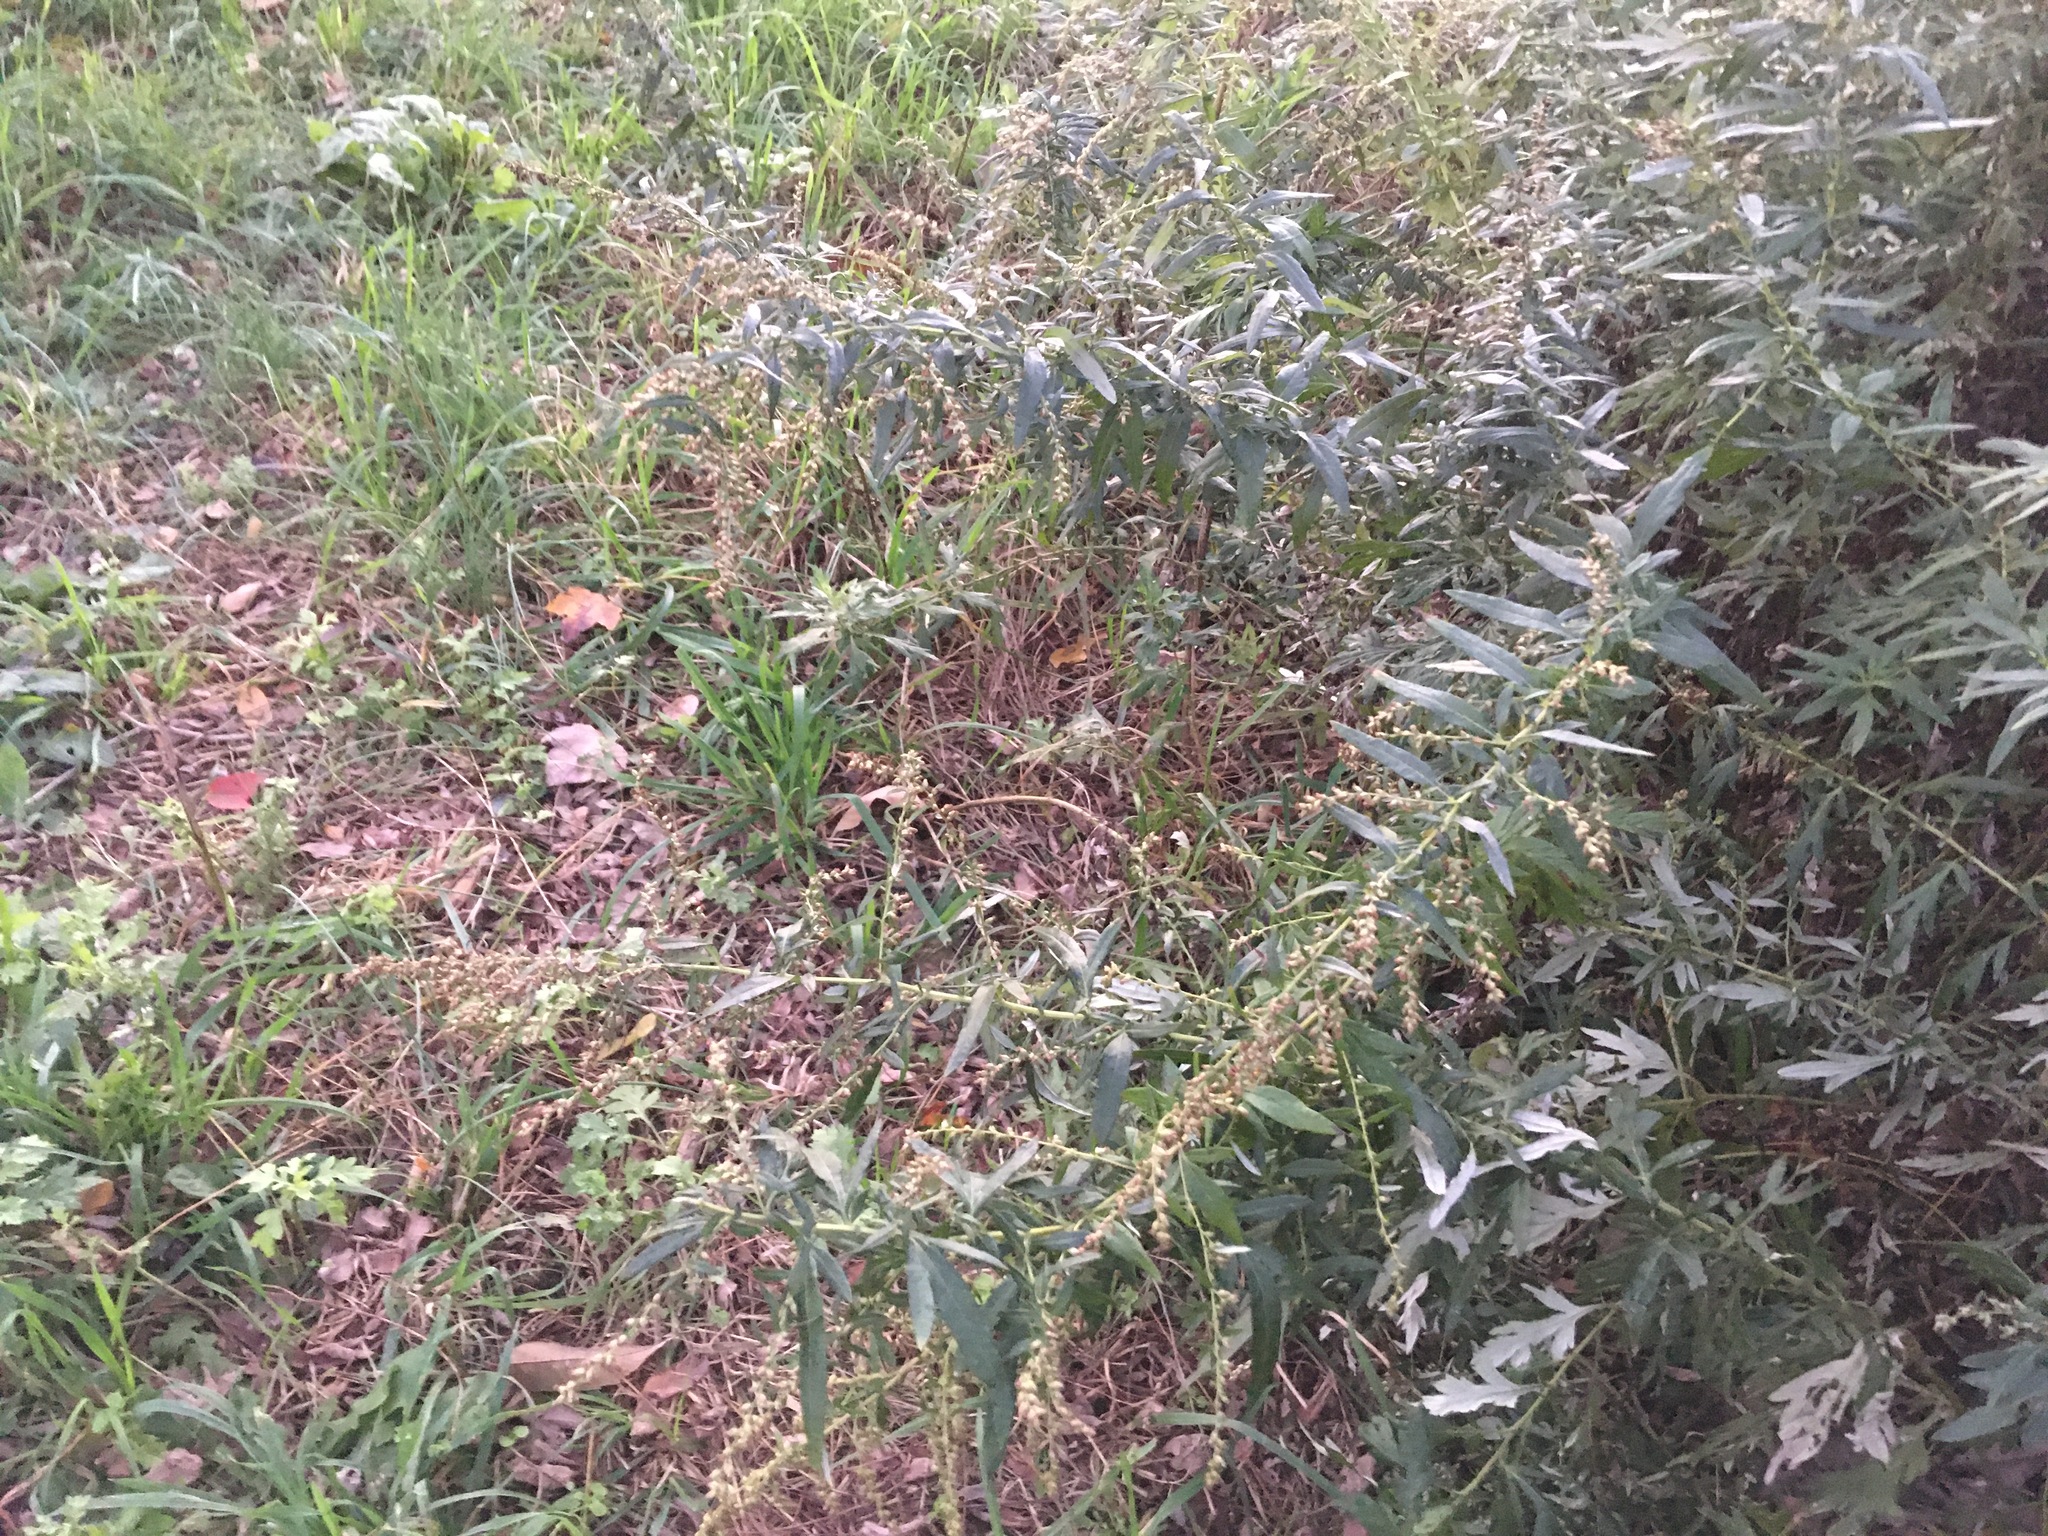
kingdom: Plantae
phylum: Tracheophyta
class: Magnoliopsida
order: Asterales
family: Asteraceae
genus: Artemisia
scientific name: Artemisia vulgaris
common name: Mugwort
